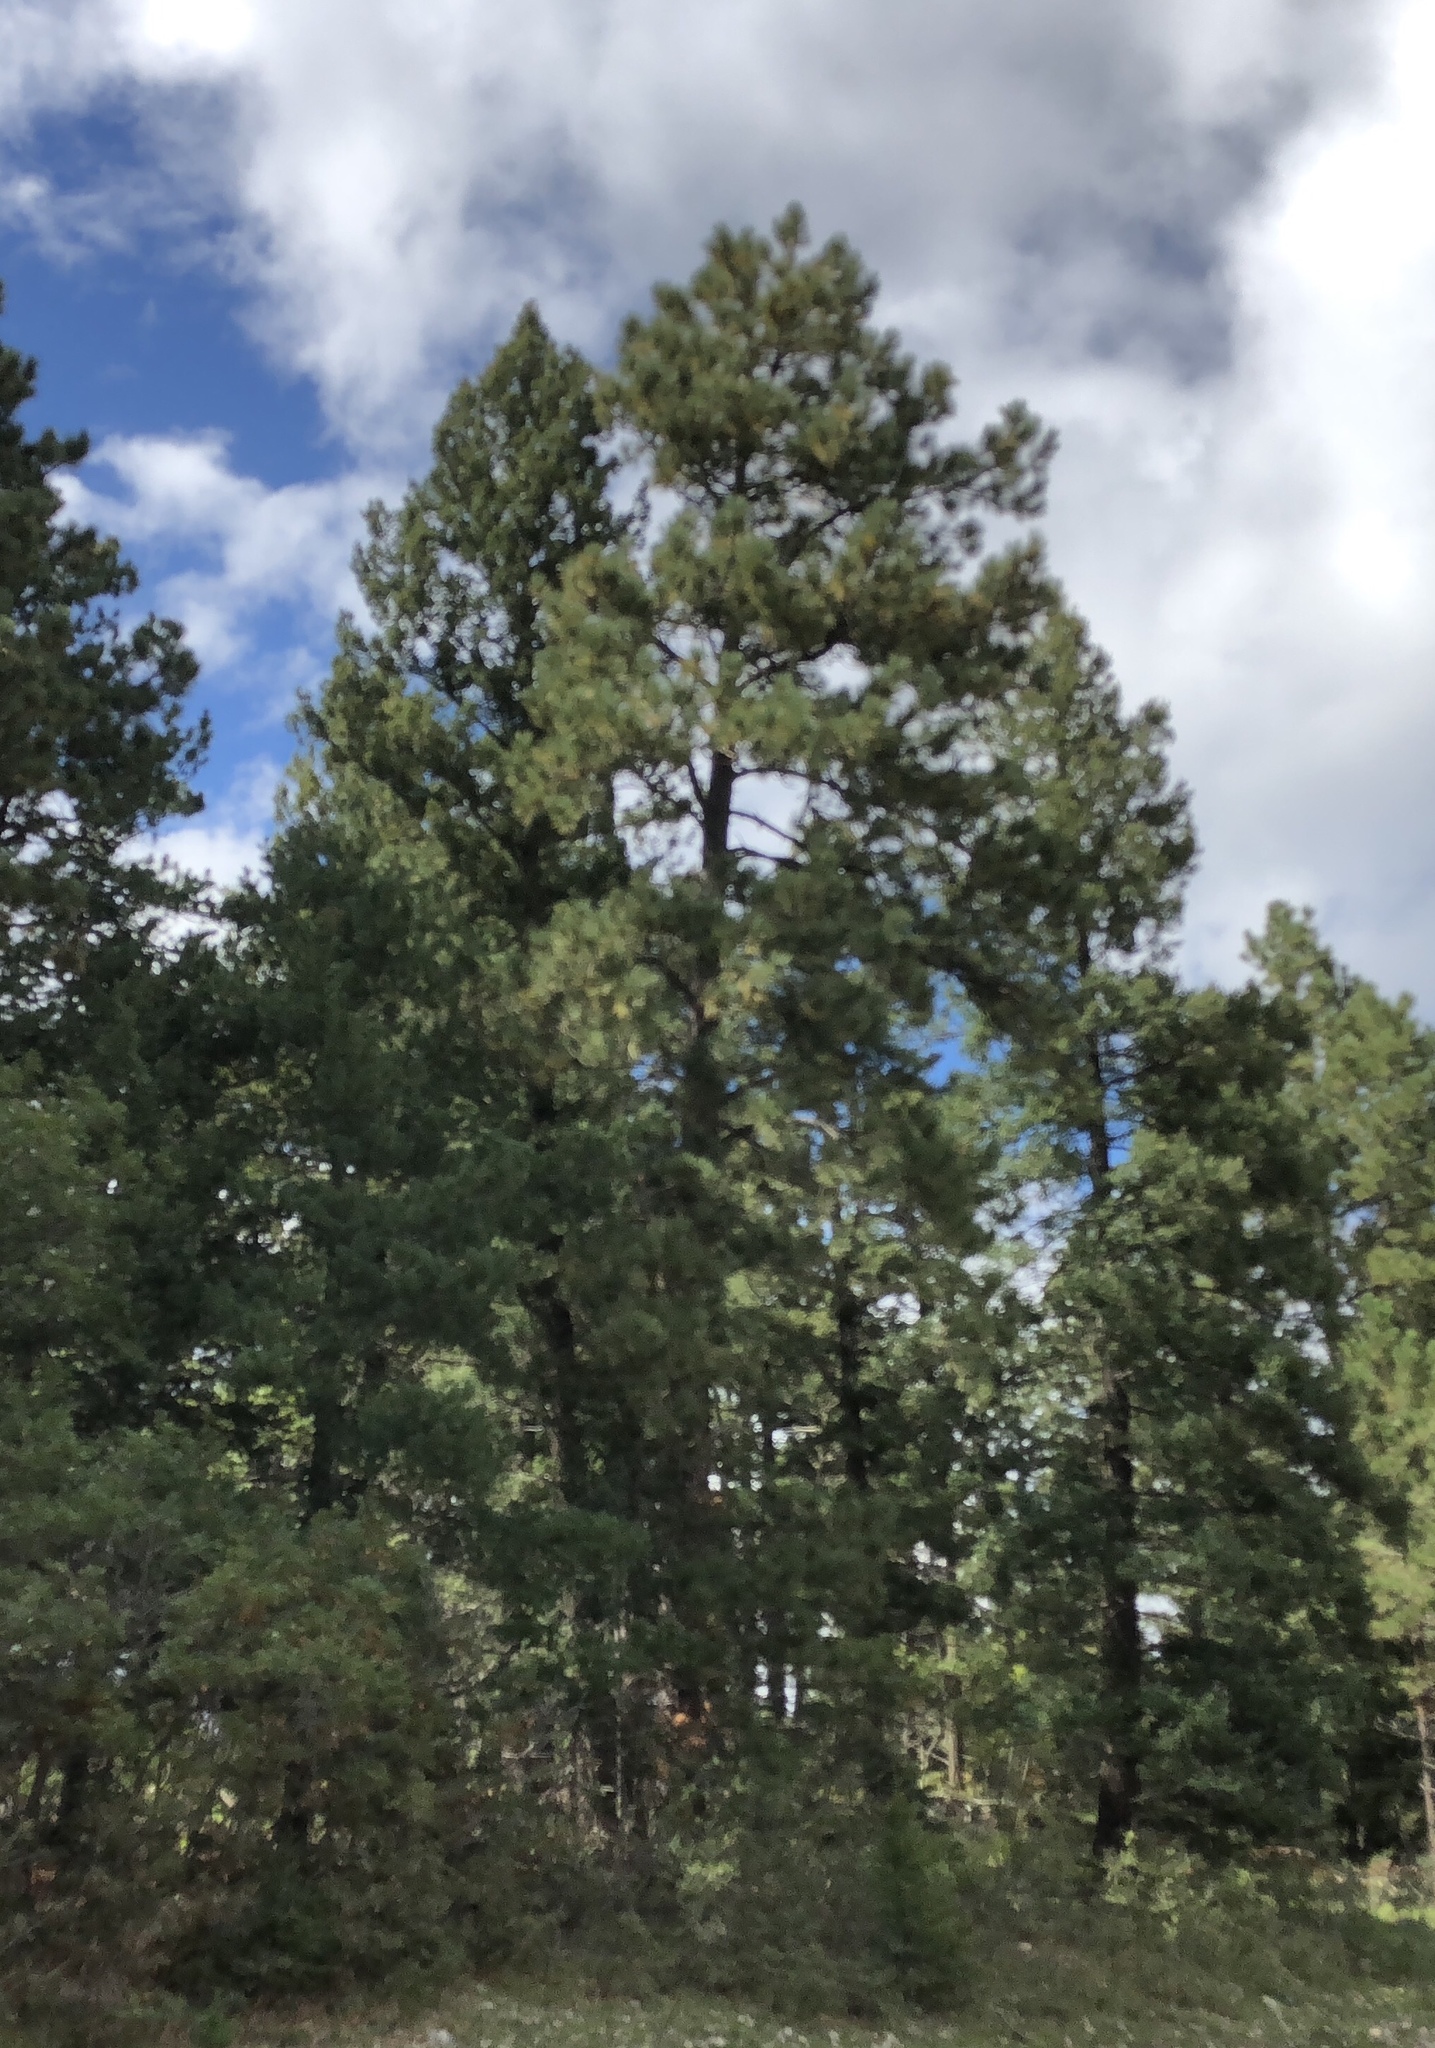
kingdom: Plantae
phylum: Tracheophyta
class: Pinopsida
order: Pinales
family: Pinaceae
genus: Pinus
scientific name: Pinus ponderosa
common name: Western yellow-pine
